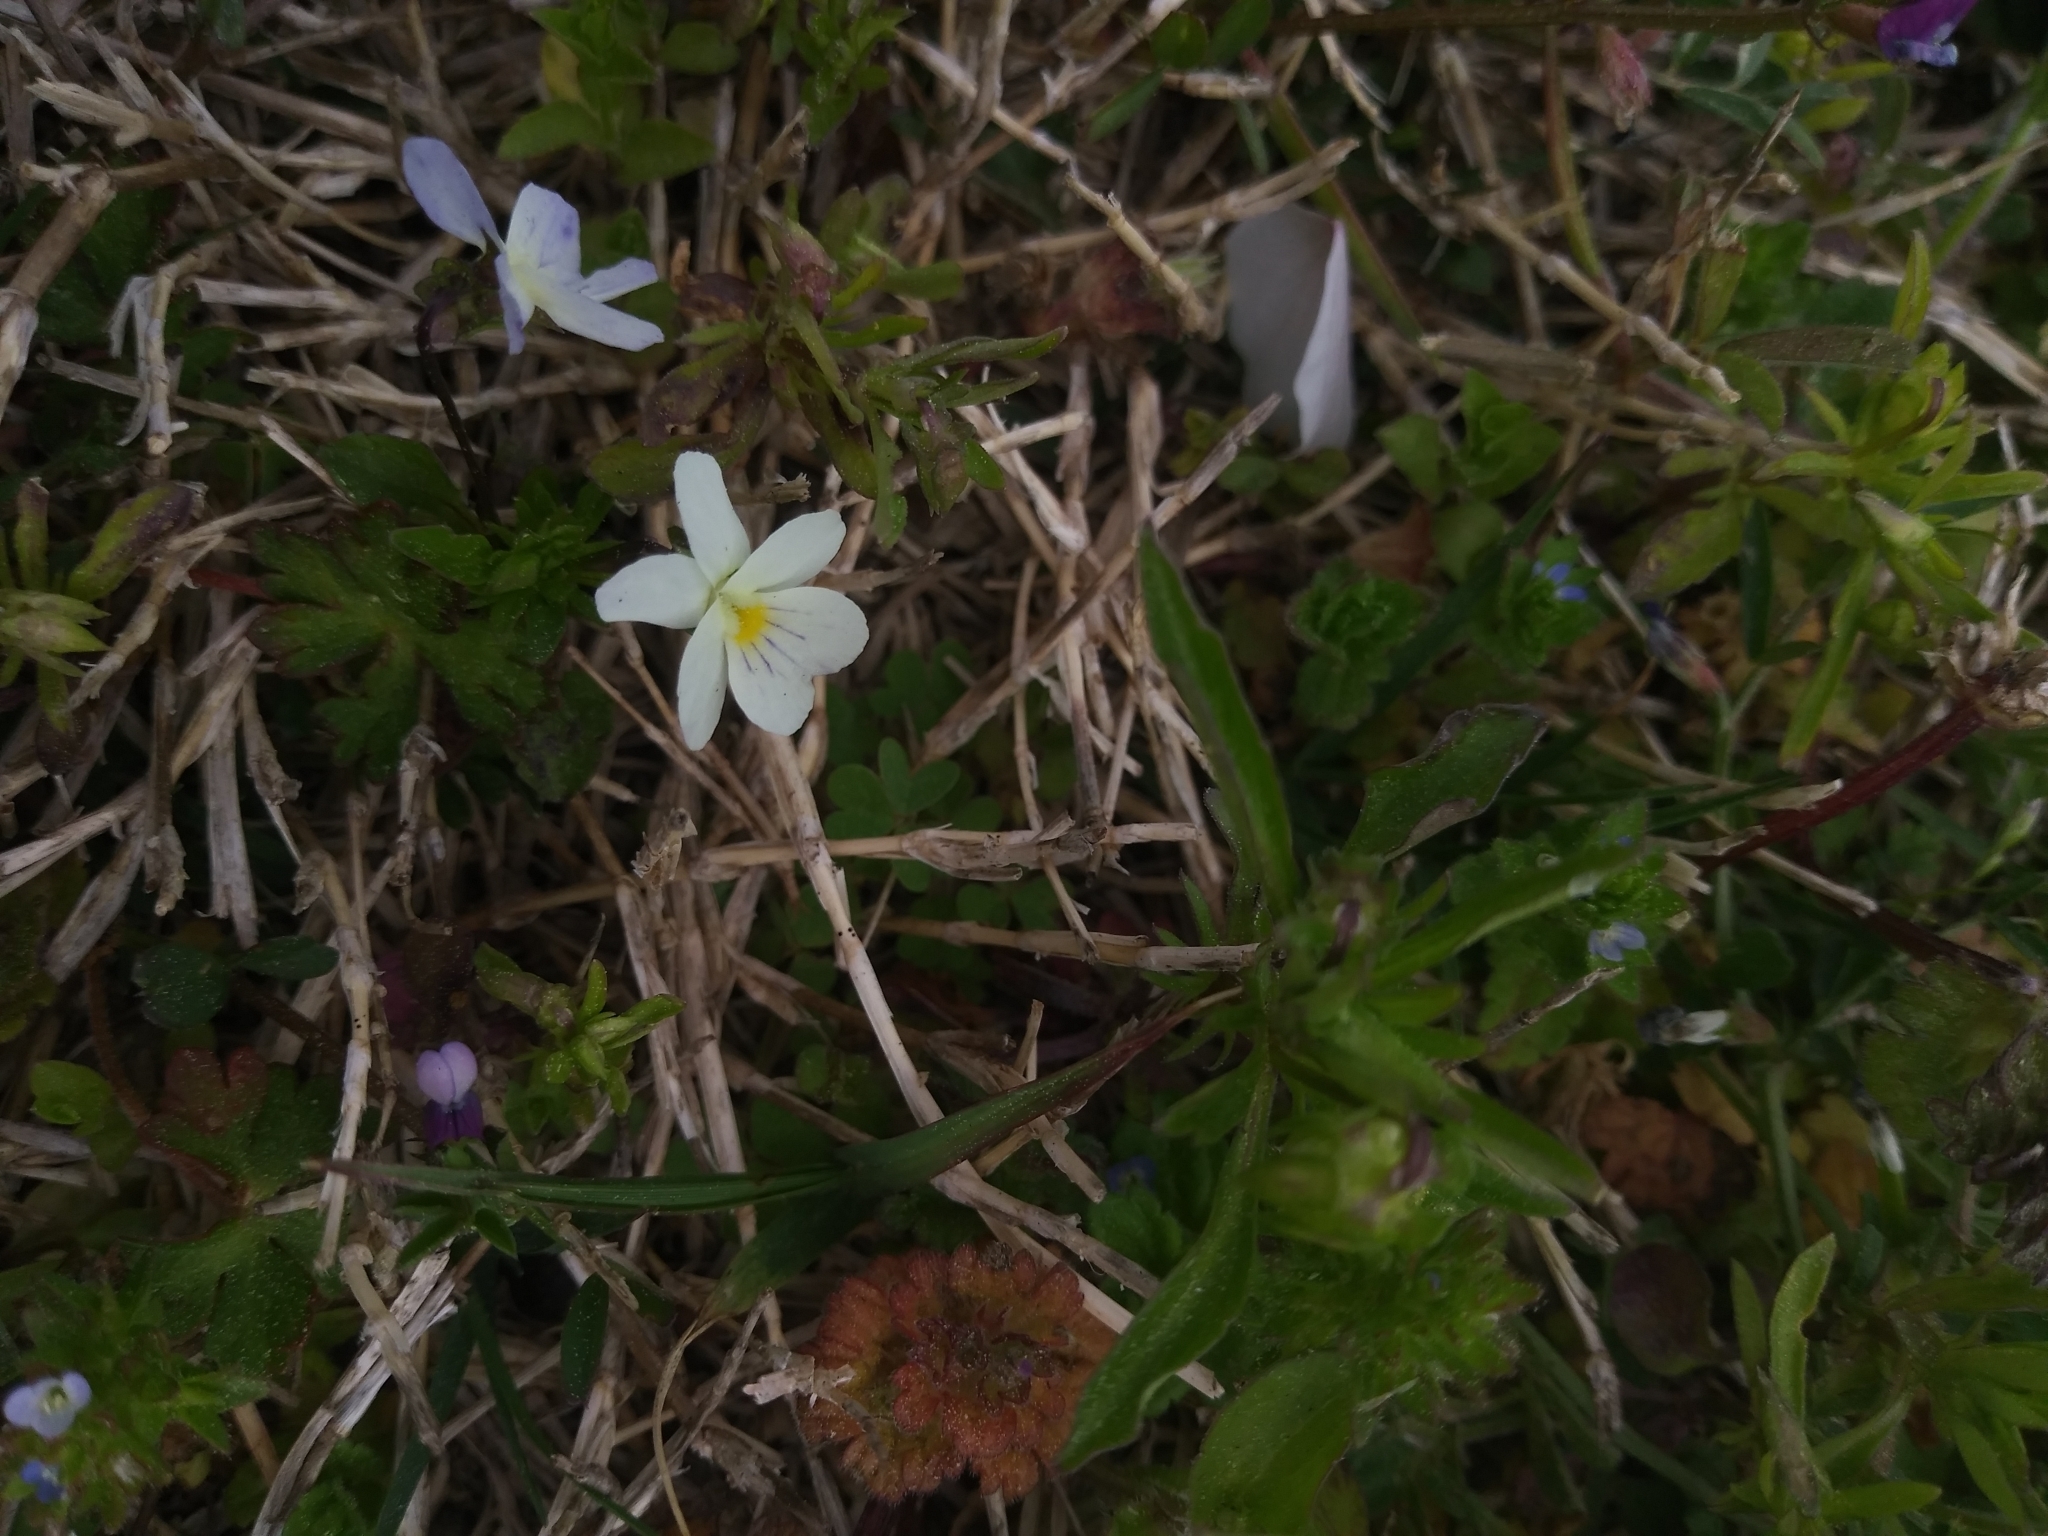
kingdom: Plantae
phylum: Tracheophyta
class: Magnoliopsida
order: Malpighiales
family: Violaceae
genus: Viola
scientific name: Viola rafinesquei
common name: American field pansy
